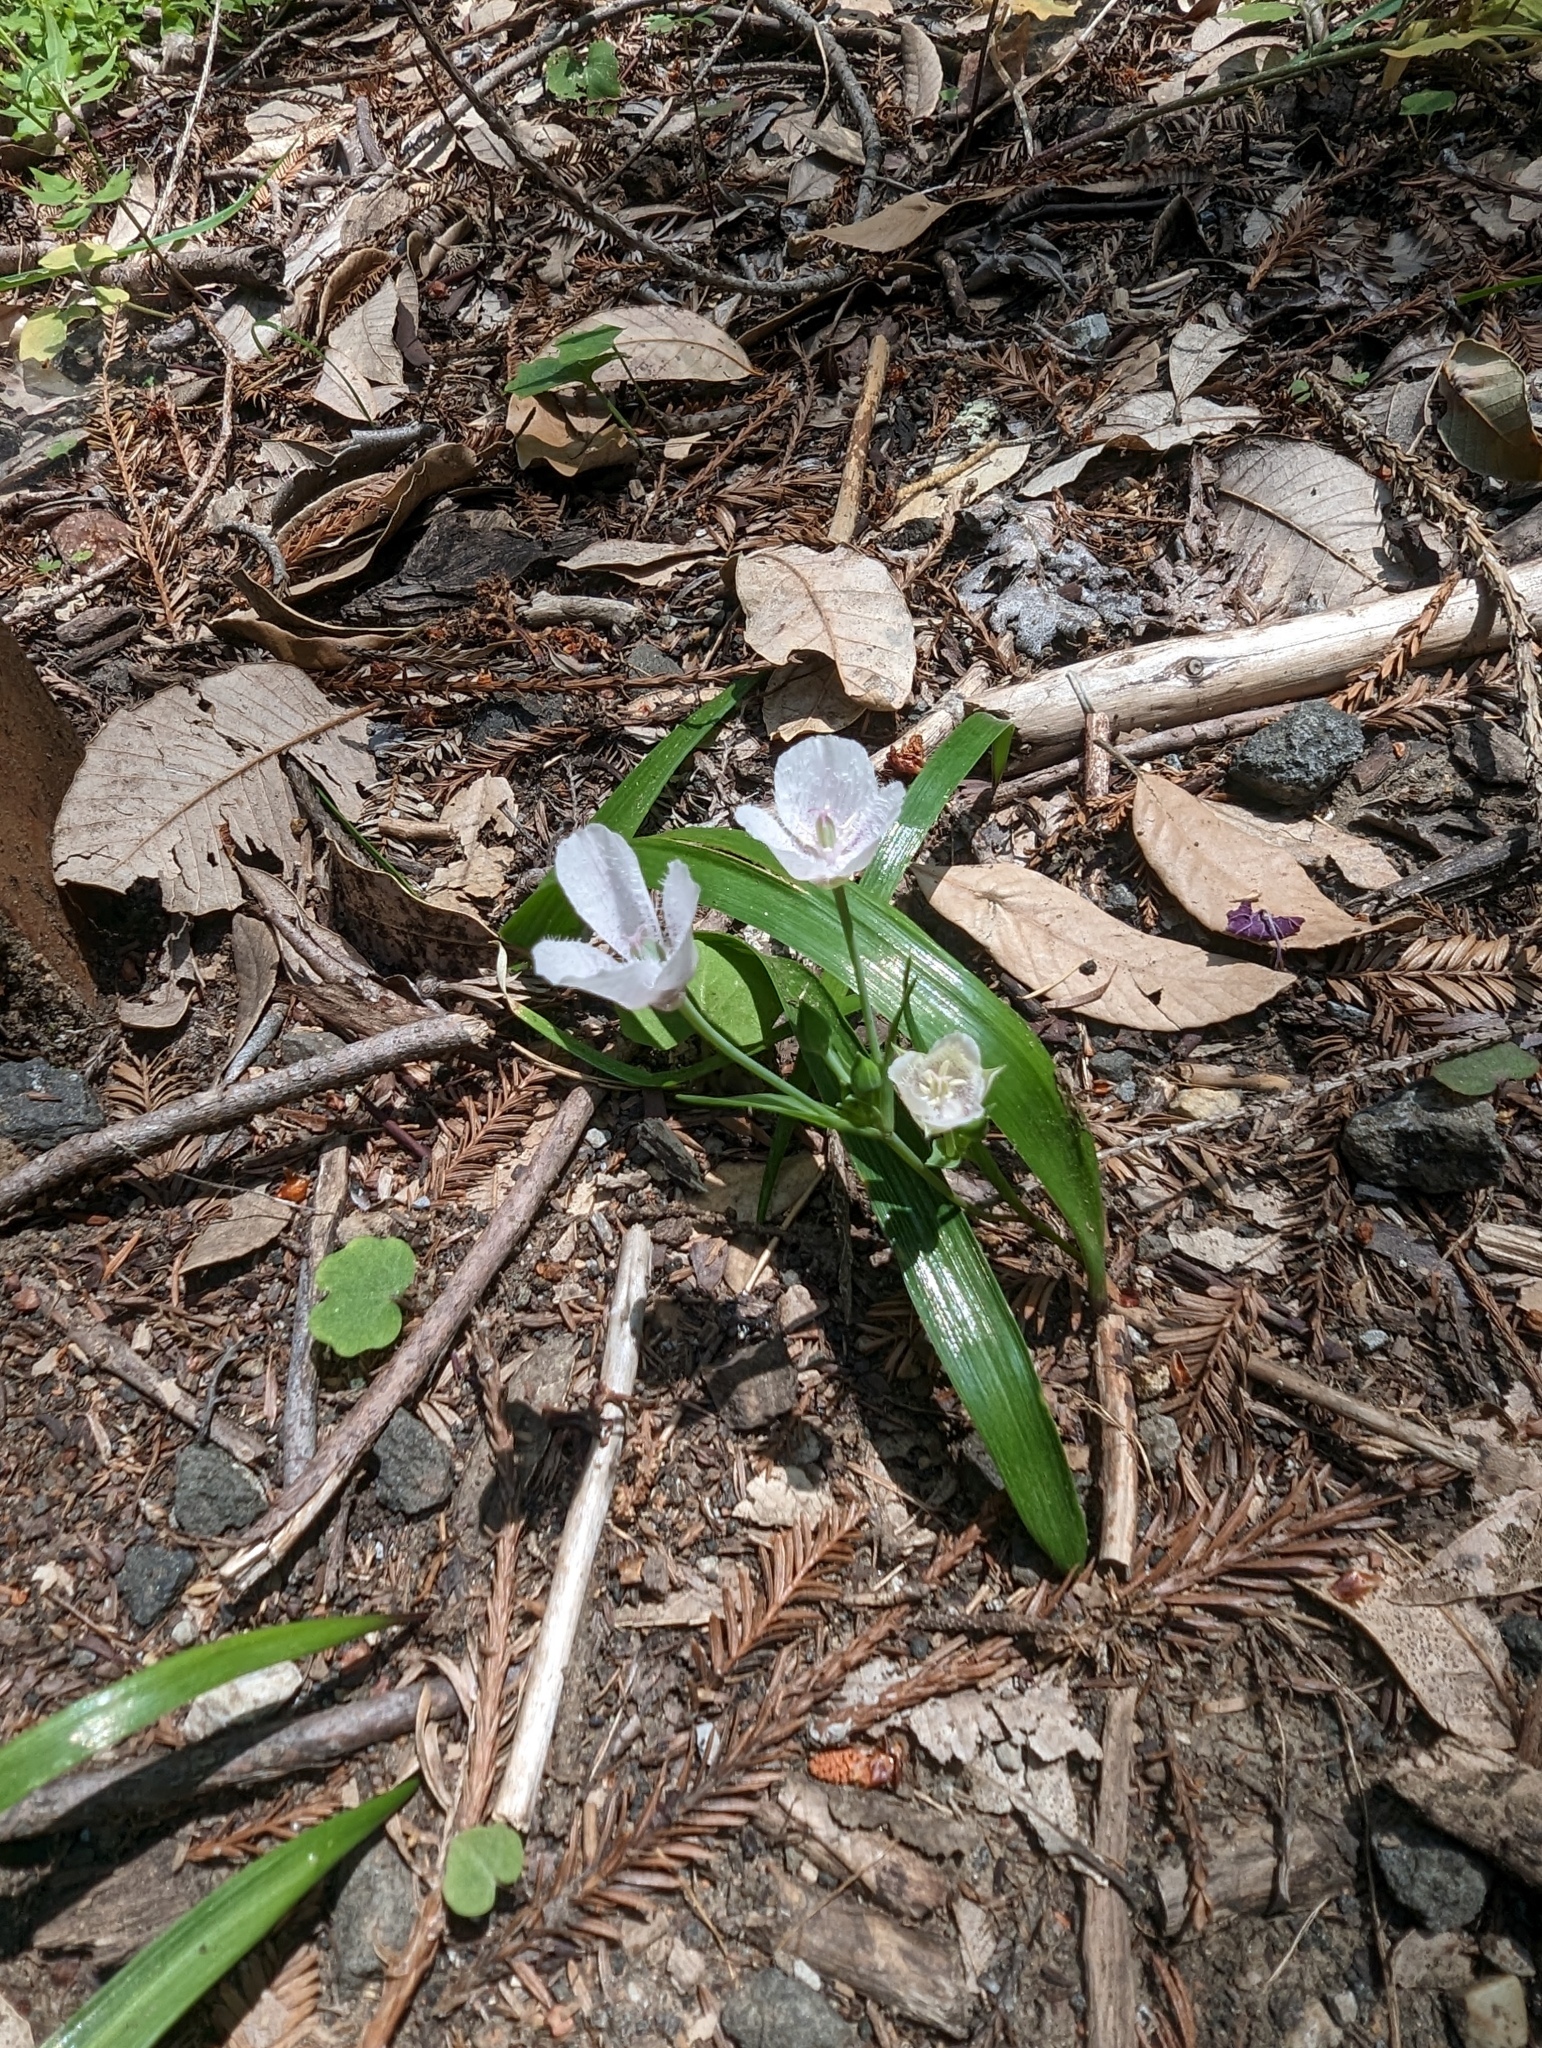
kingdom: Plantae
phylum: Tracheophyta
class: Liliopsida
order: Liliales
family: Liliaceae
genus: Calochortus
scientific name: Calochortus tolmiei
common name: Pussy-ears
